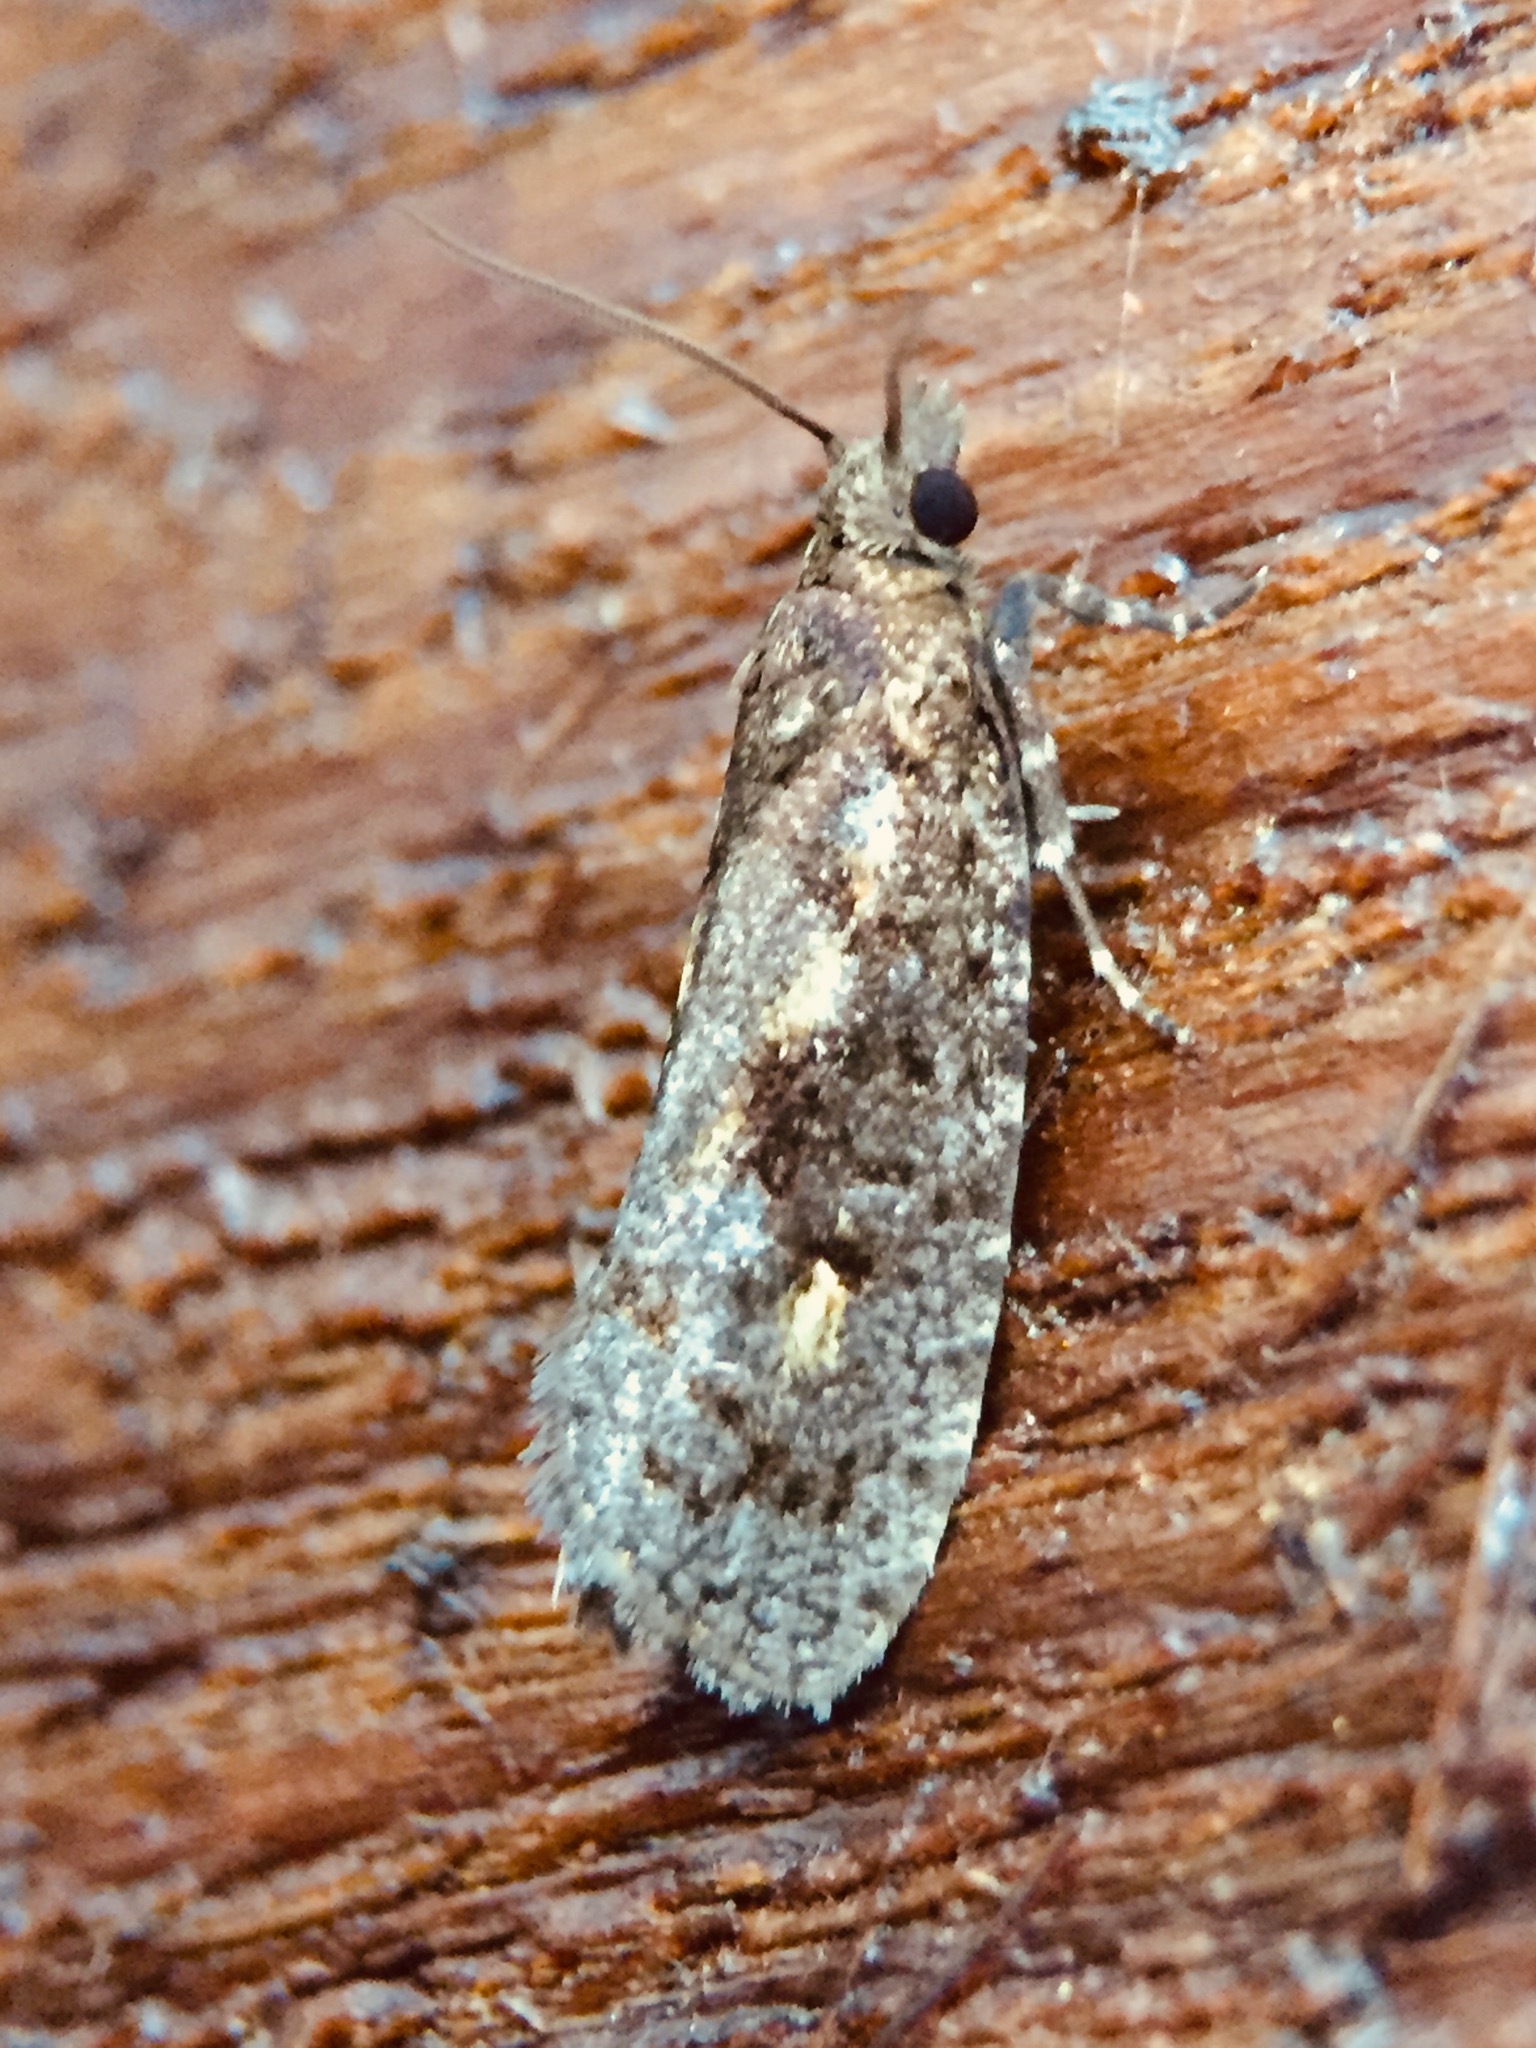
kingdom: Animalia
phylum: Arthropoda
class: Insecta
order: Lepidoptera
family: Tortricidae
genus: Cryptaspasma
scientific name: Cryptaspasma querula
